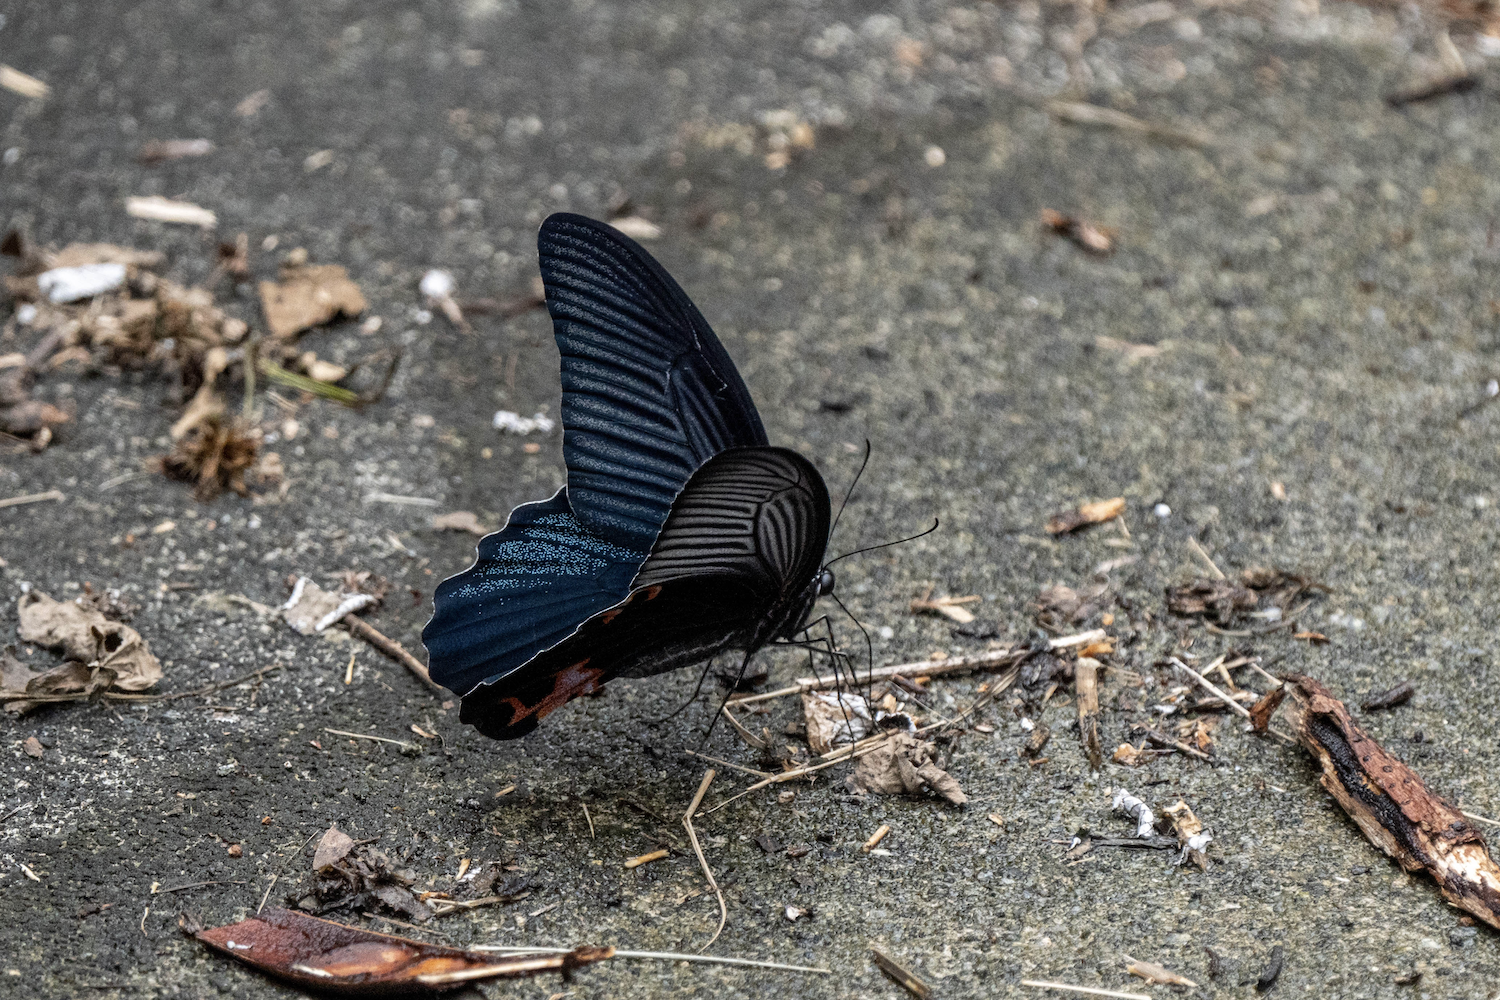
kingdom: Animalia
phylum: Arthropoda
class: Insecta
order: Lepidoptera
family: Papilionidae
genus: Papilio
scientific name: Papilio protenor
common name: Spangle
